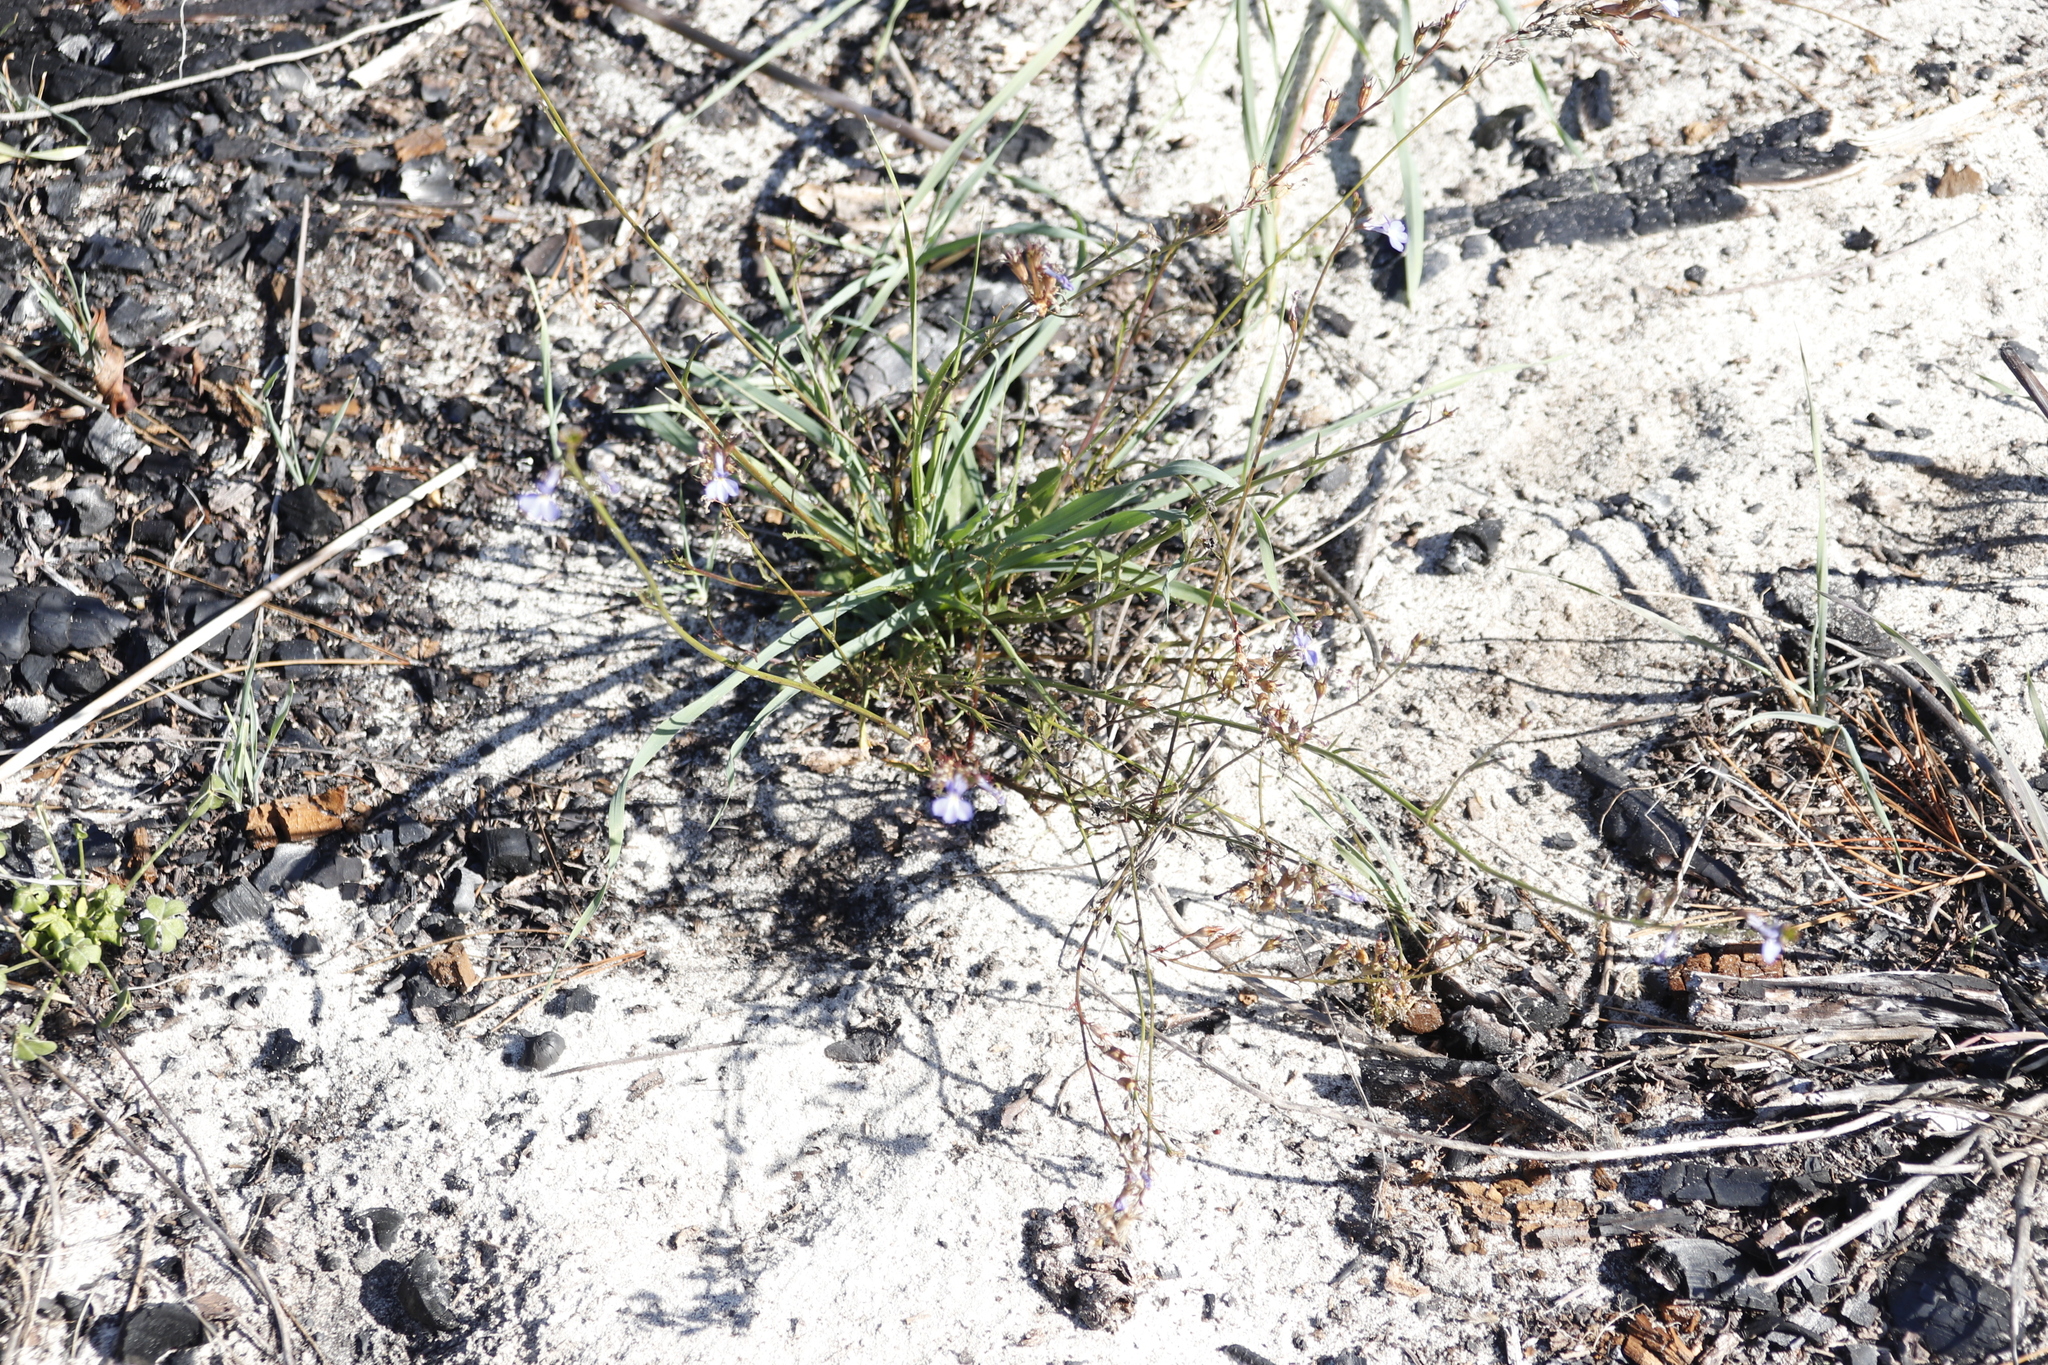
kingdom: Plantae
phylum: Tracheophyta
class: Magnoliopsida
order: Asterales
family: Campanulaceae
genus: Lobelia
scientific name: Lobelia comosa
